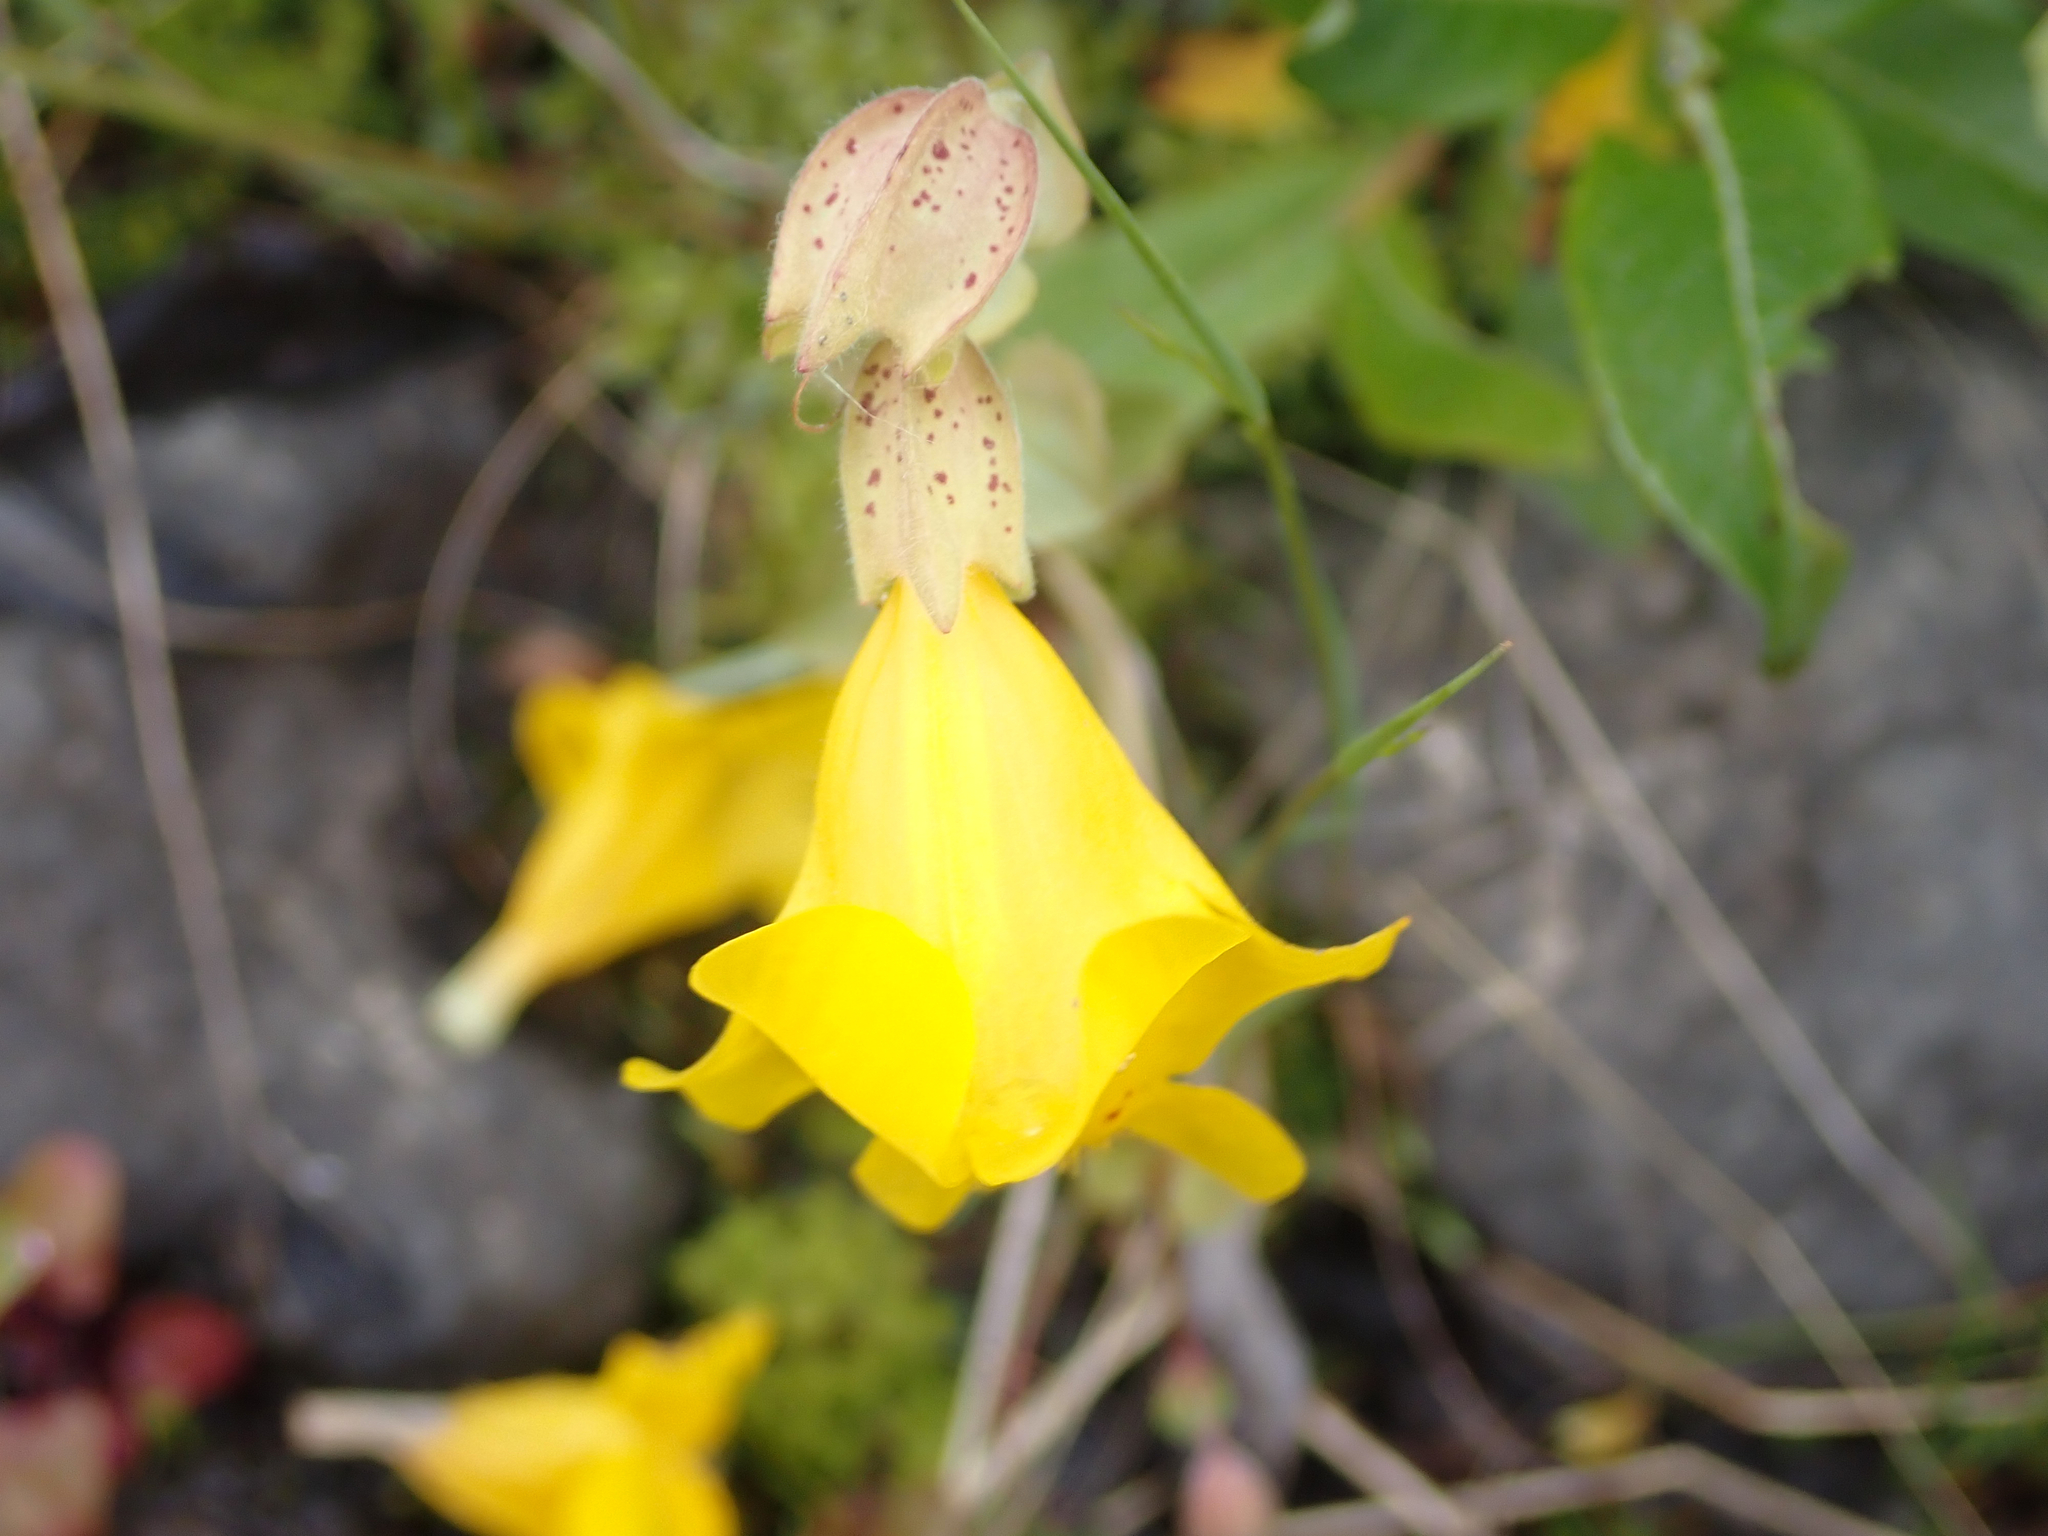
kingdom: Plantae
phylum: Tracheophyta
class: Magnoliopsida
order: Lamiales
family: Phrymaceae
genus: Erythranthe
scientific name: Erythranthe guttata
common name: Monkeyflower
